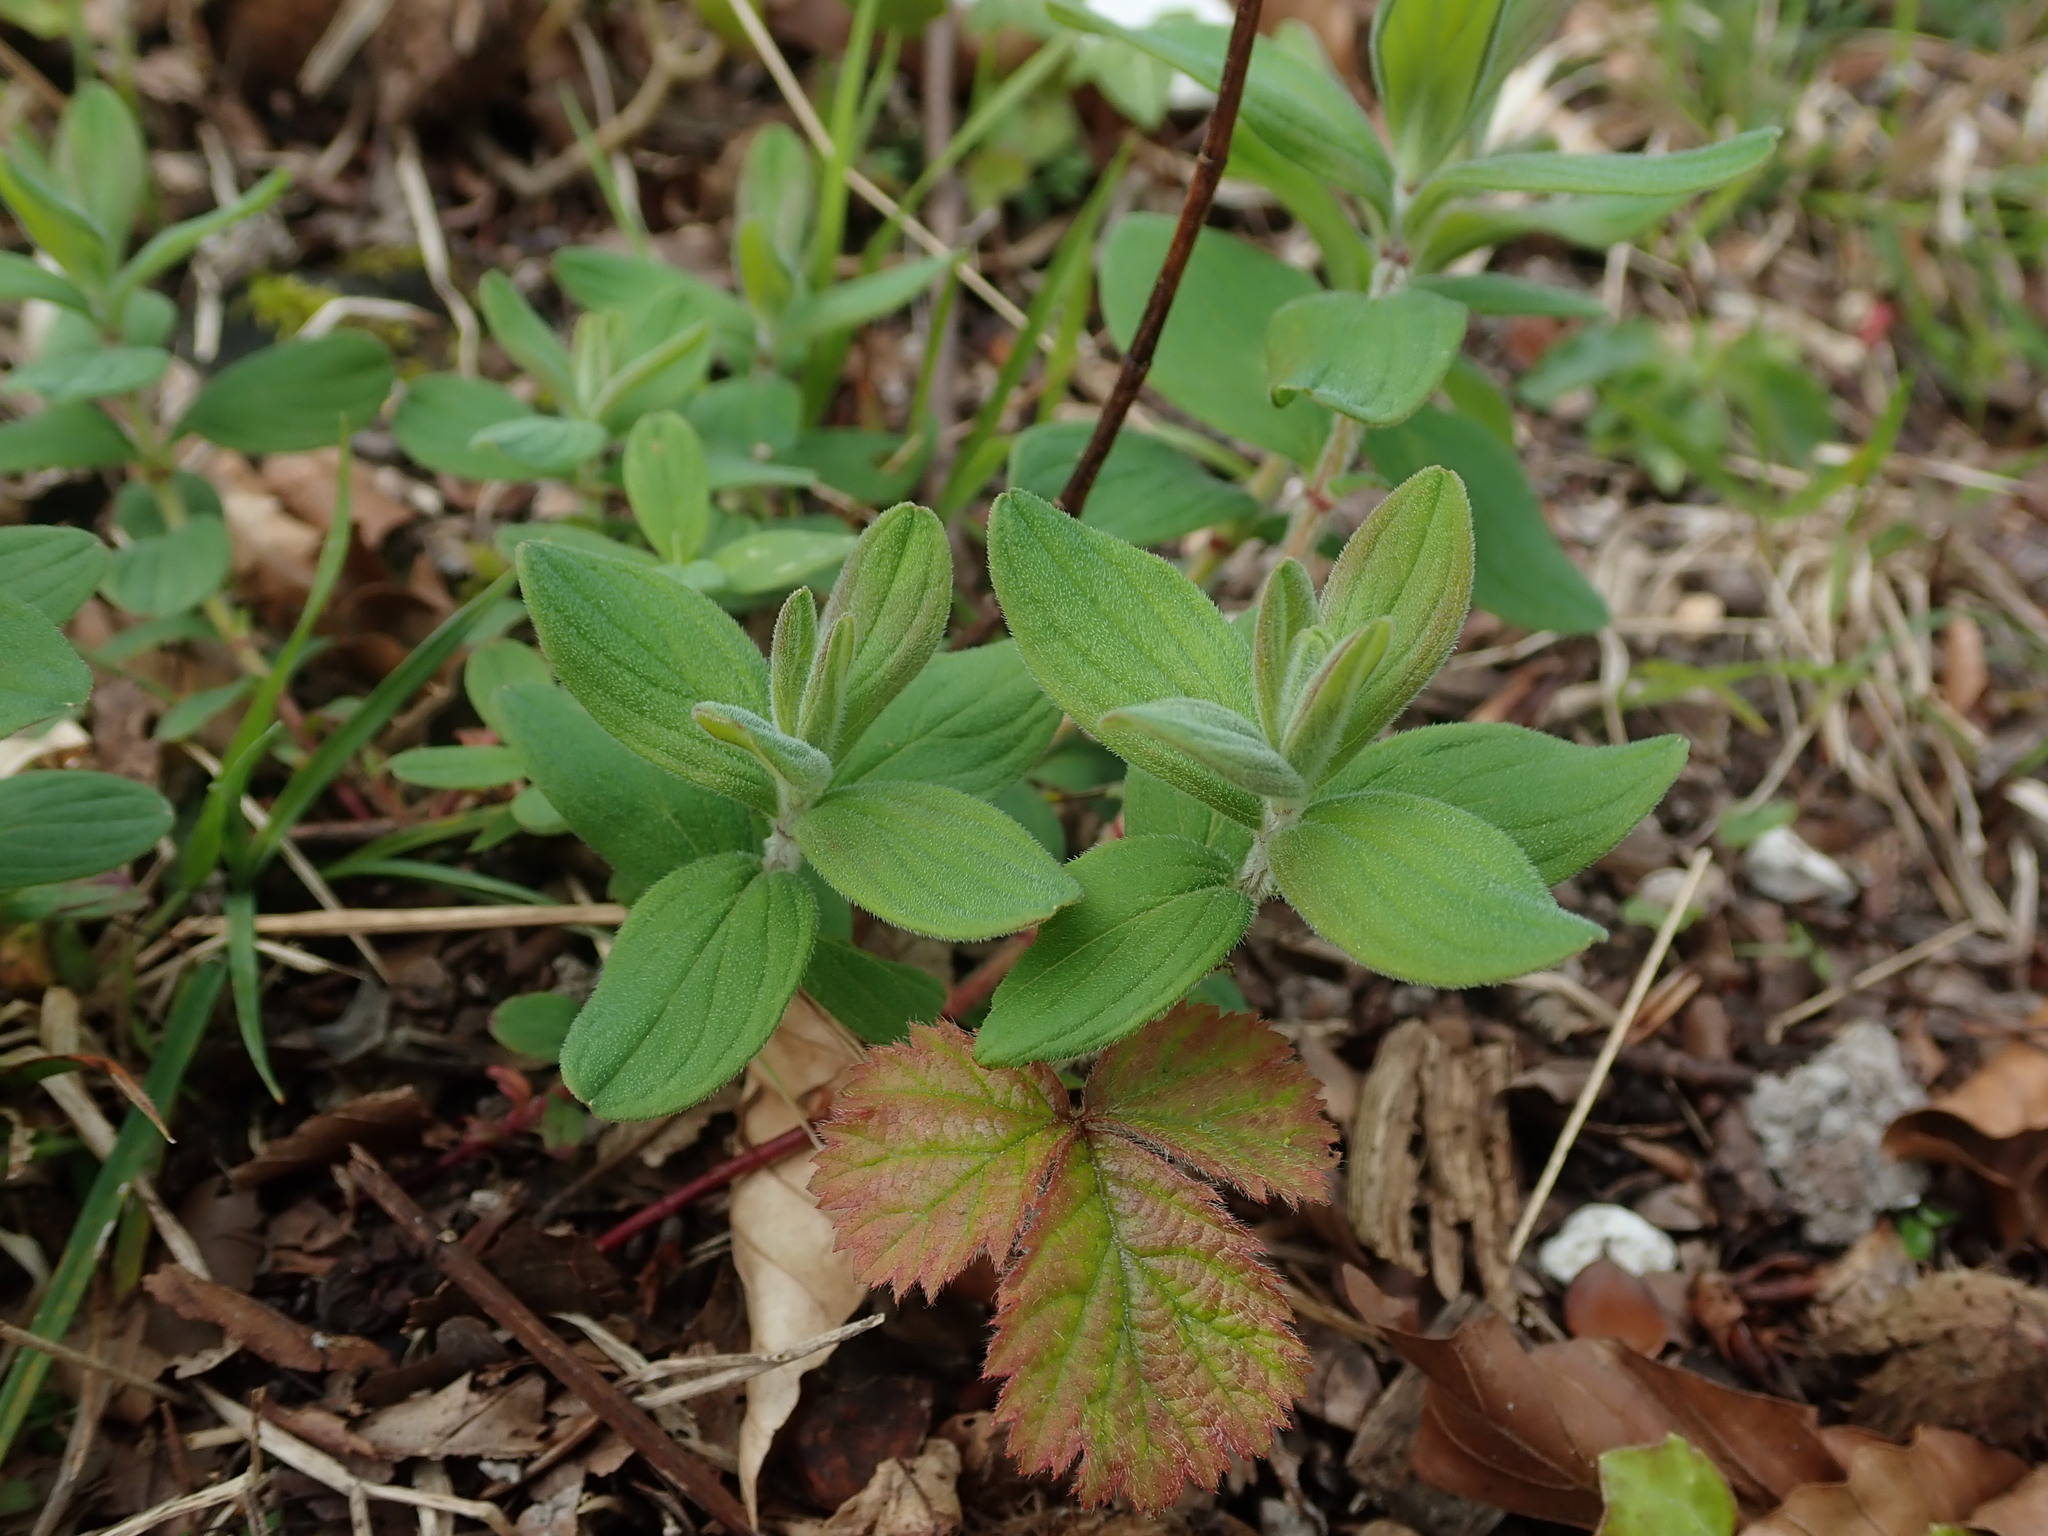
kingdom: Plantae
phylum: Tracheophyta
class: Magnoliopsida
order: Malpighiales
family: Hypericaceae
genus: Hypericum
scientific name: Hypericum hirsutum
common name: Hairy st. john's-wort
